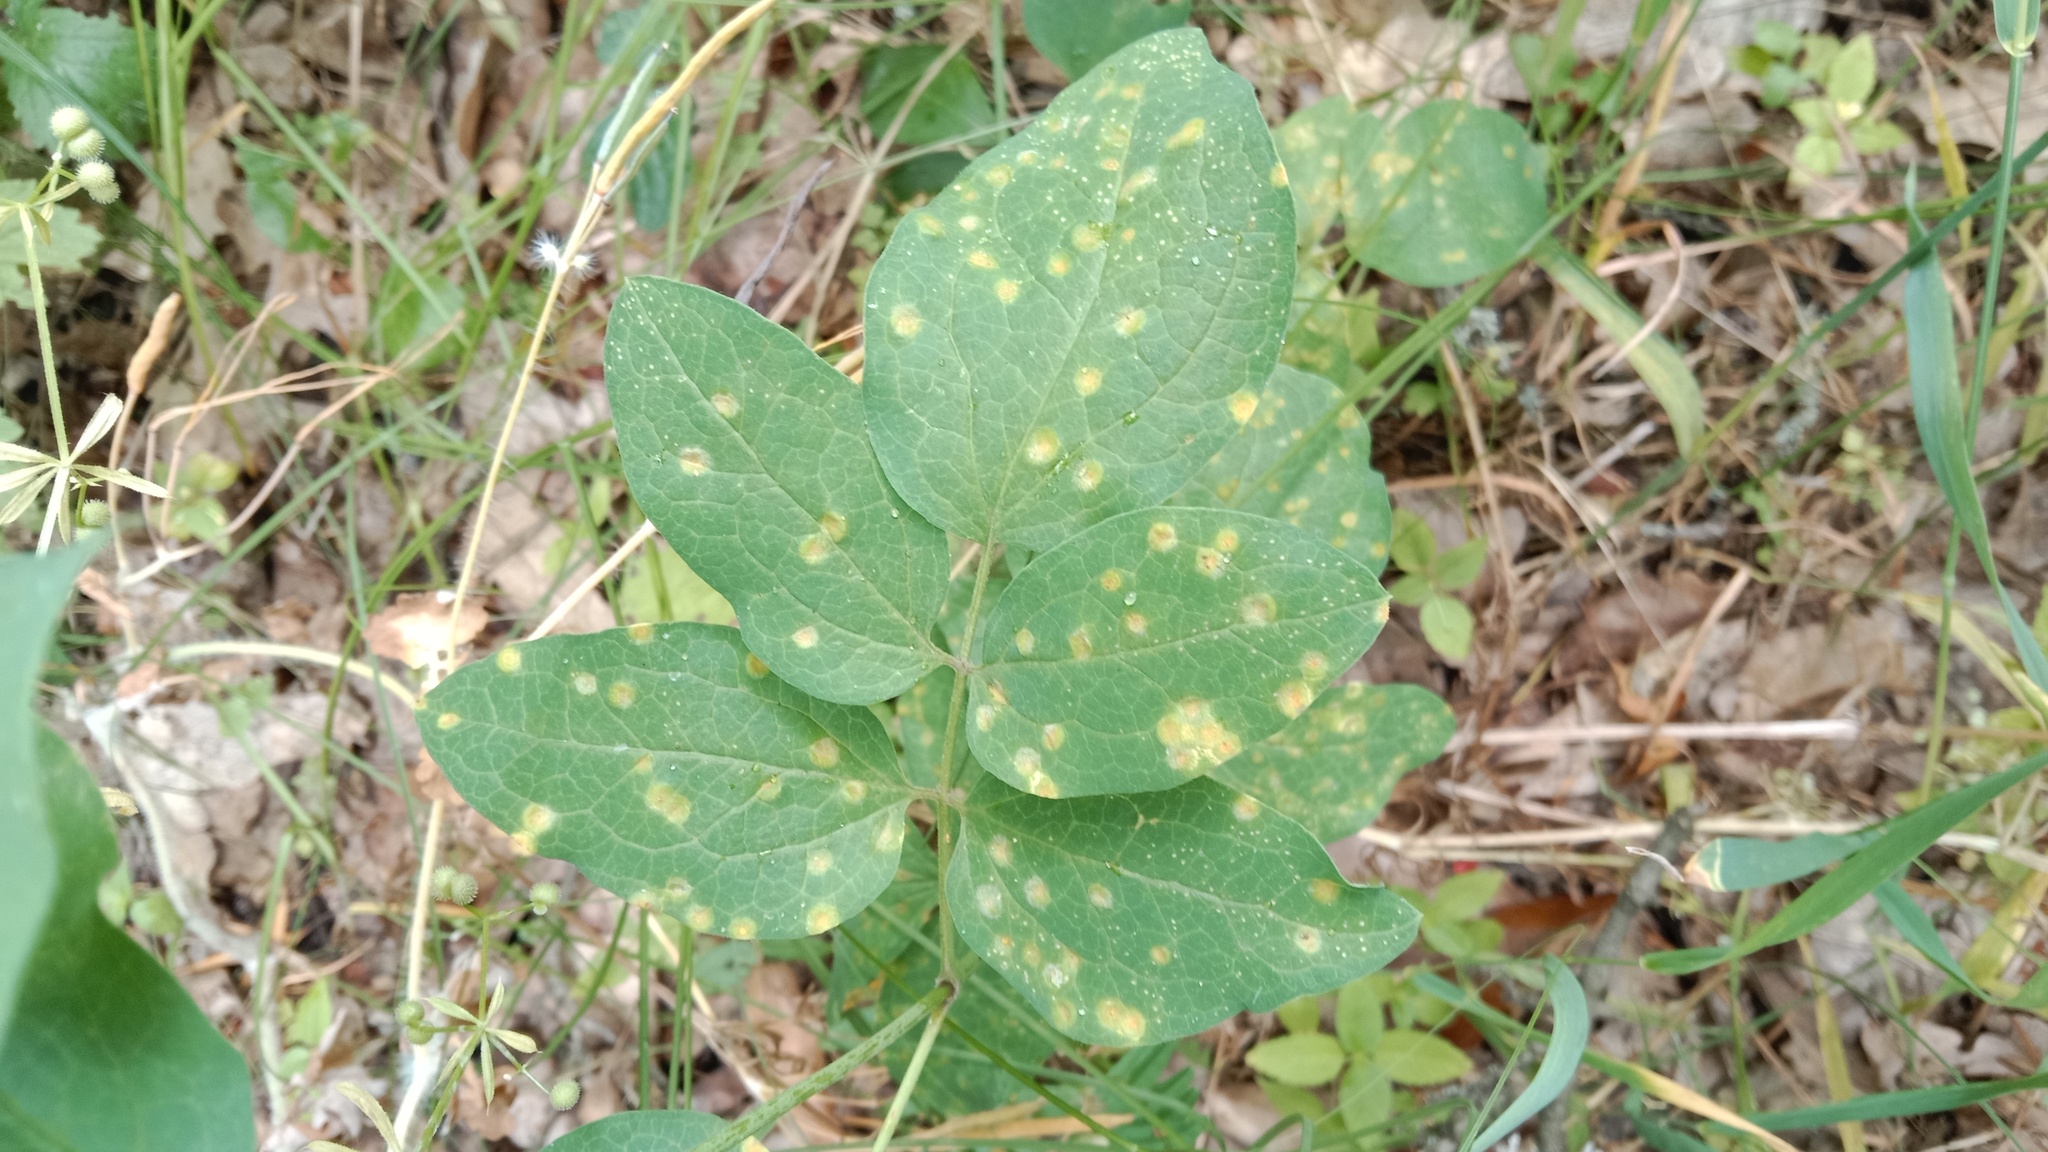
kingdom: Plantae
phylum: Tracheophyta
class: Magnoliopsida
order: Ranunculales
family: Ranunculaceae
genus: Clematis
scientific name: Clematis recta
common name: Ground clematis
